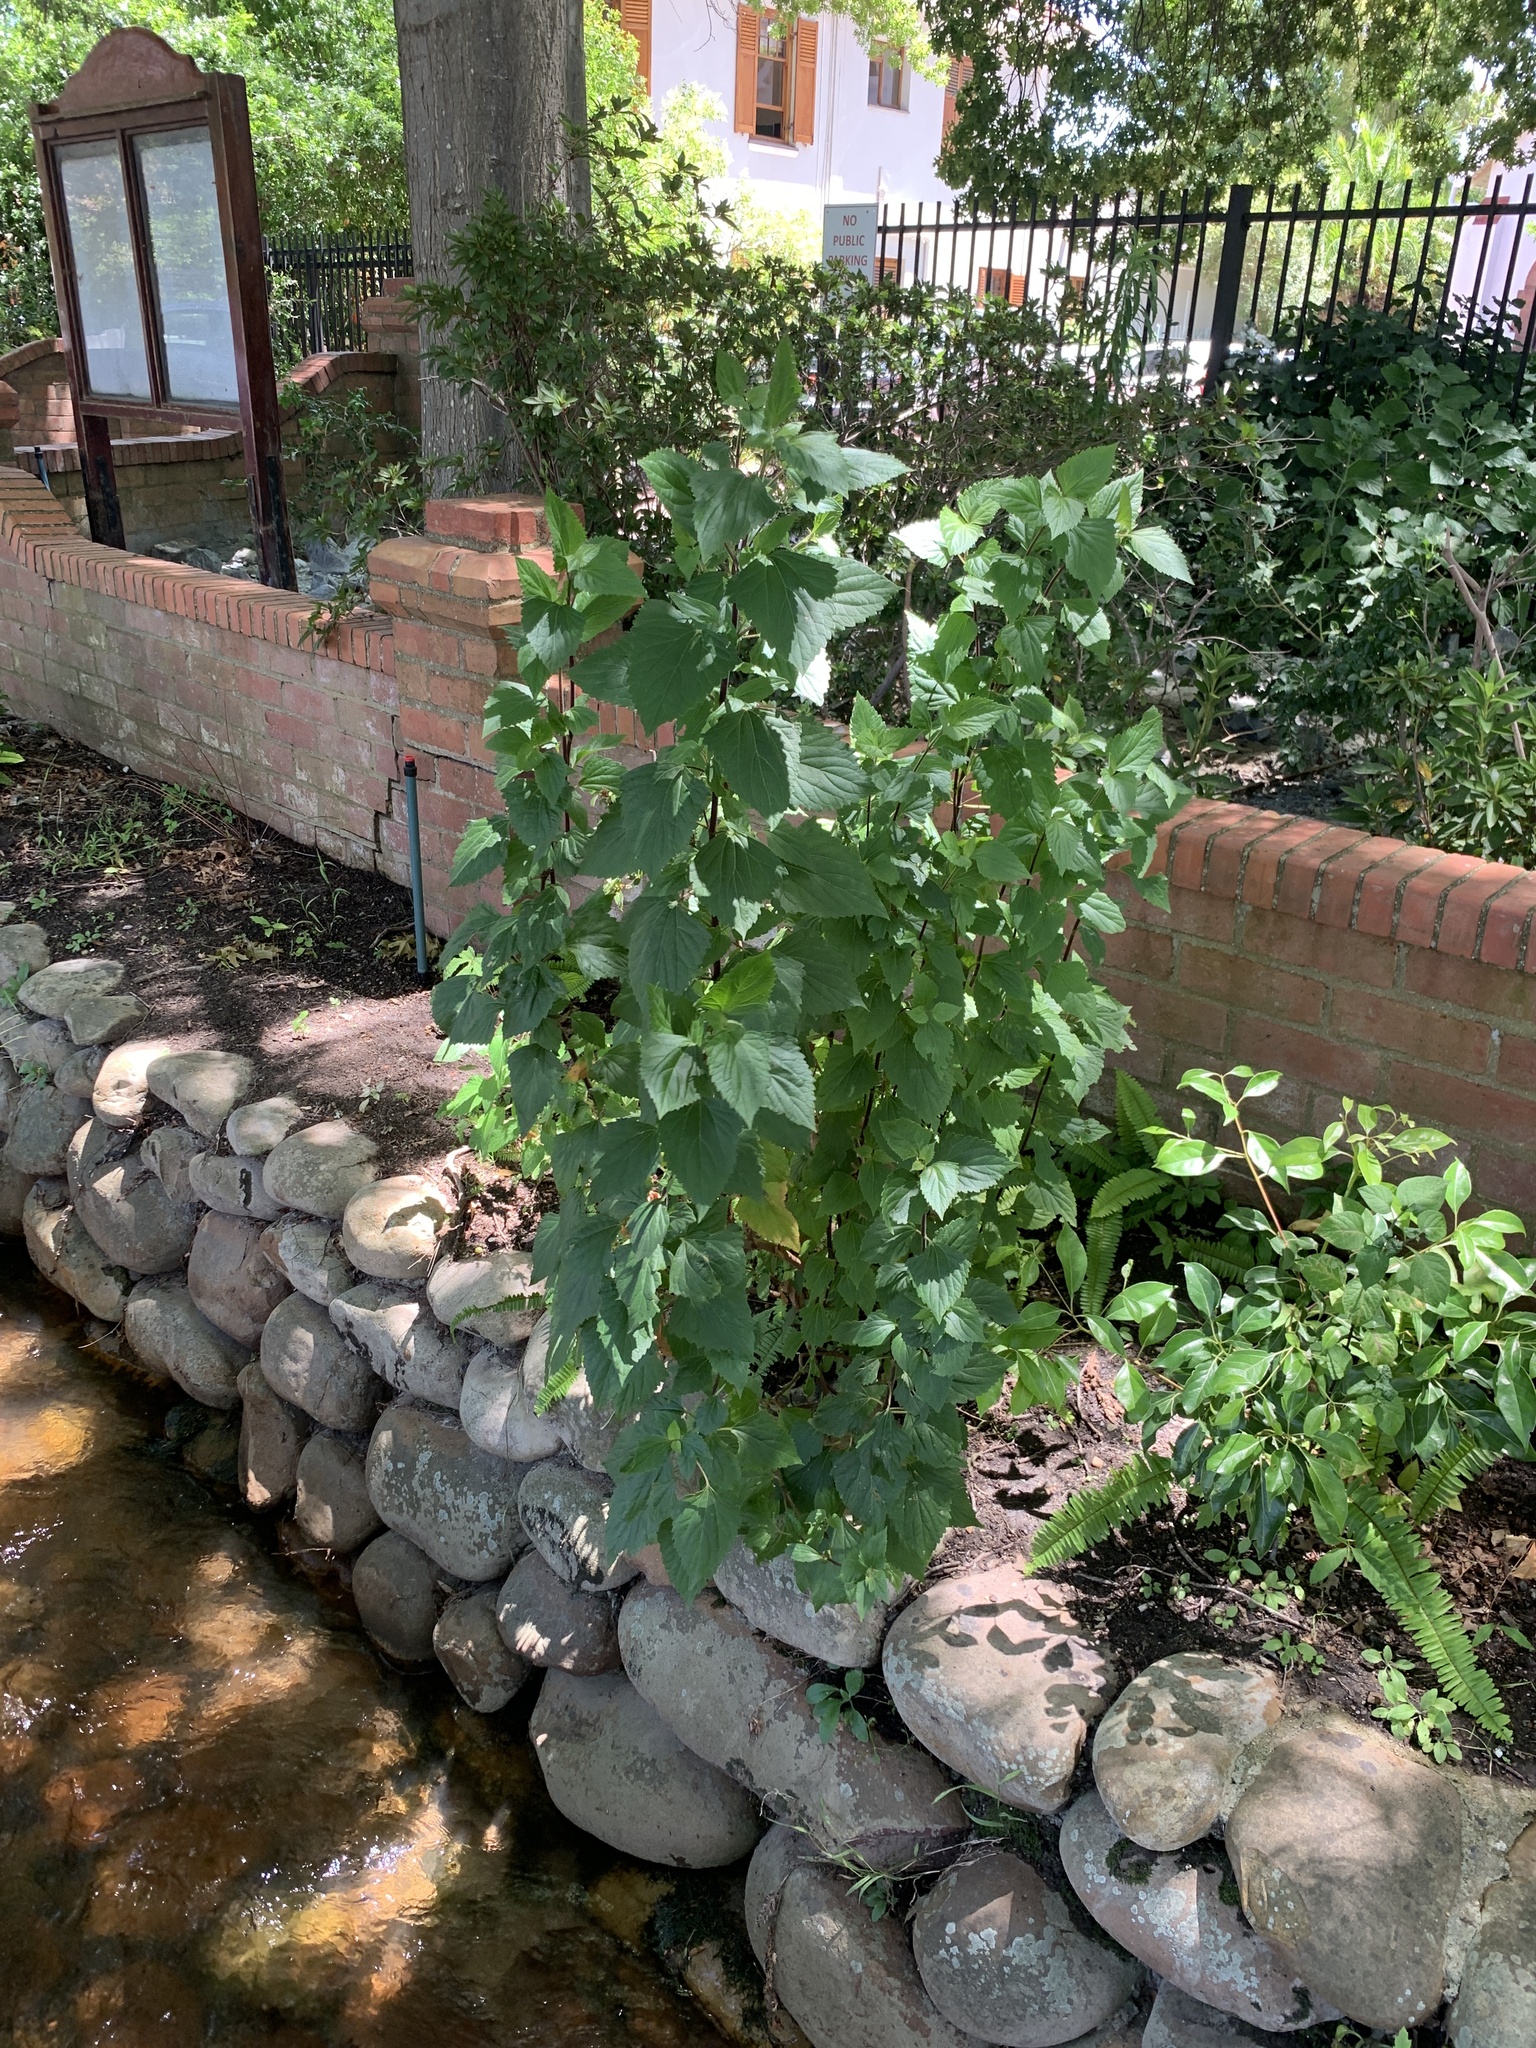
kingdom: Plantae
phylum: Tracheophyta
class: Magnoliopsida
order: Asterales
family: Asteraceae
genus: Ageratina
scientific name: Ageratina adenophora
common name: Sticky snakeroot
